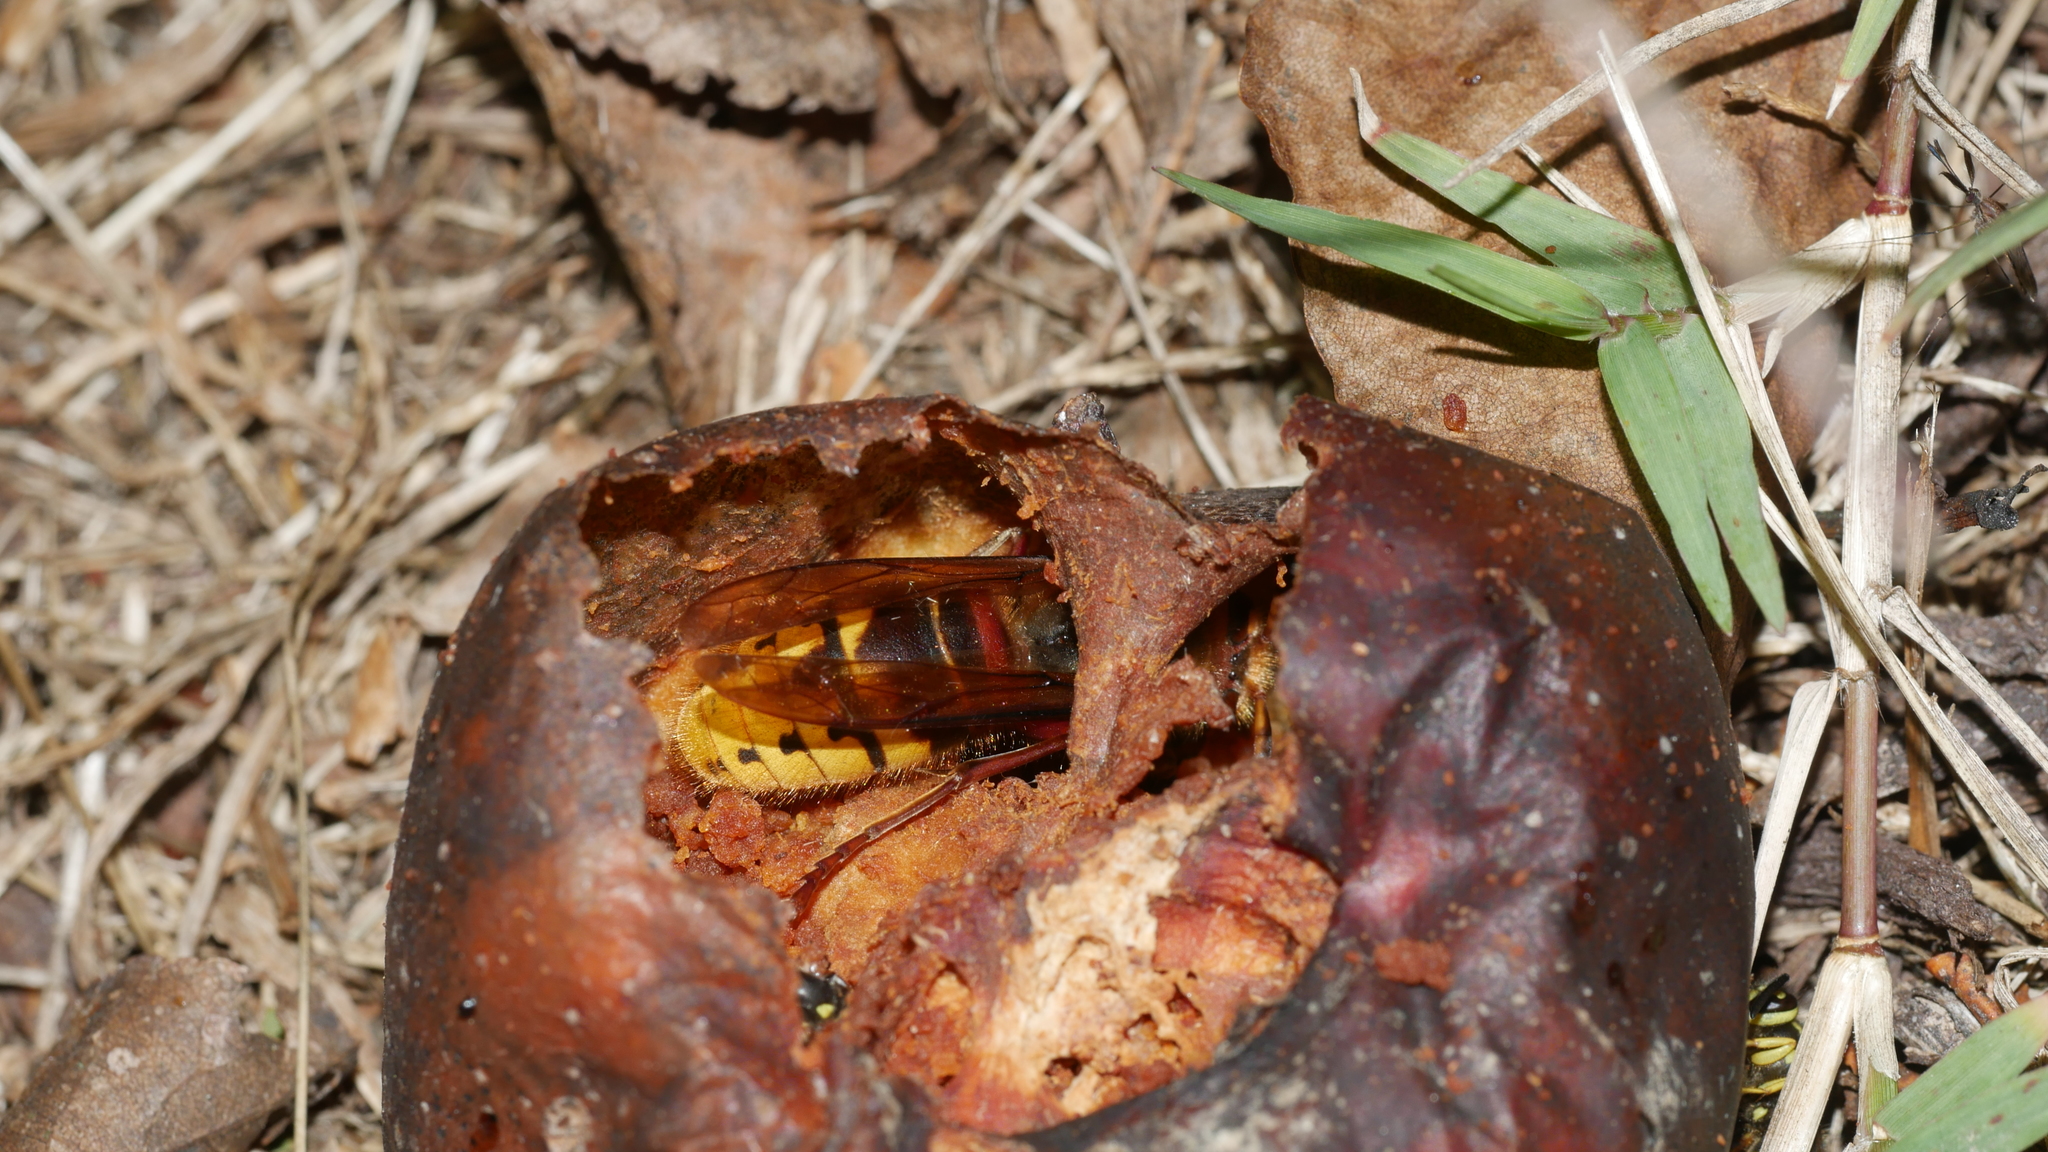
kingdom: Animalia
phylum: Arthropoda
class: Insecta
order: Hymenoptera
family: Vespidae
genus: Vespa
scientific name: Vespa crabro
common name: Hornet
